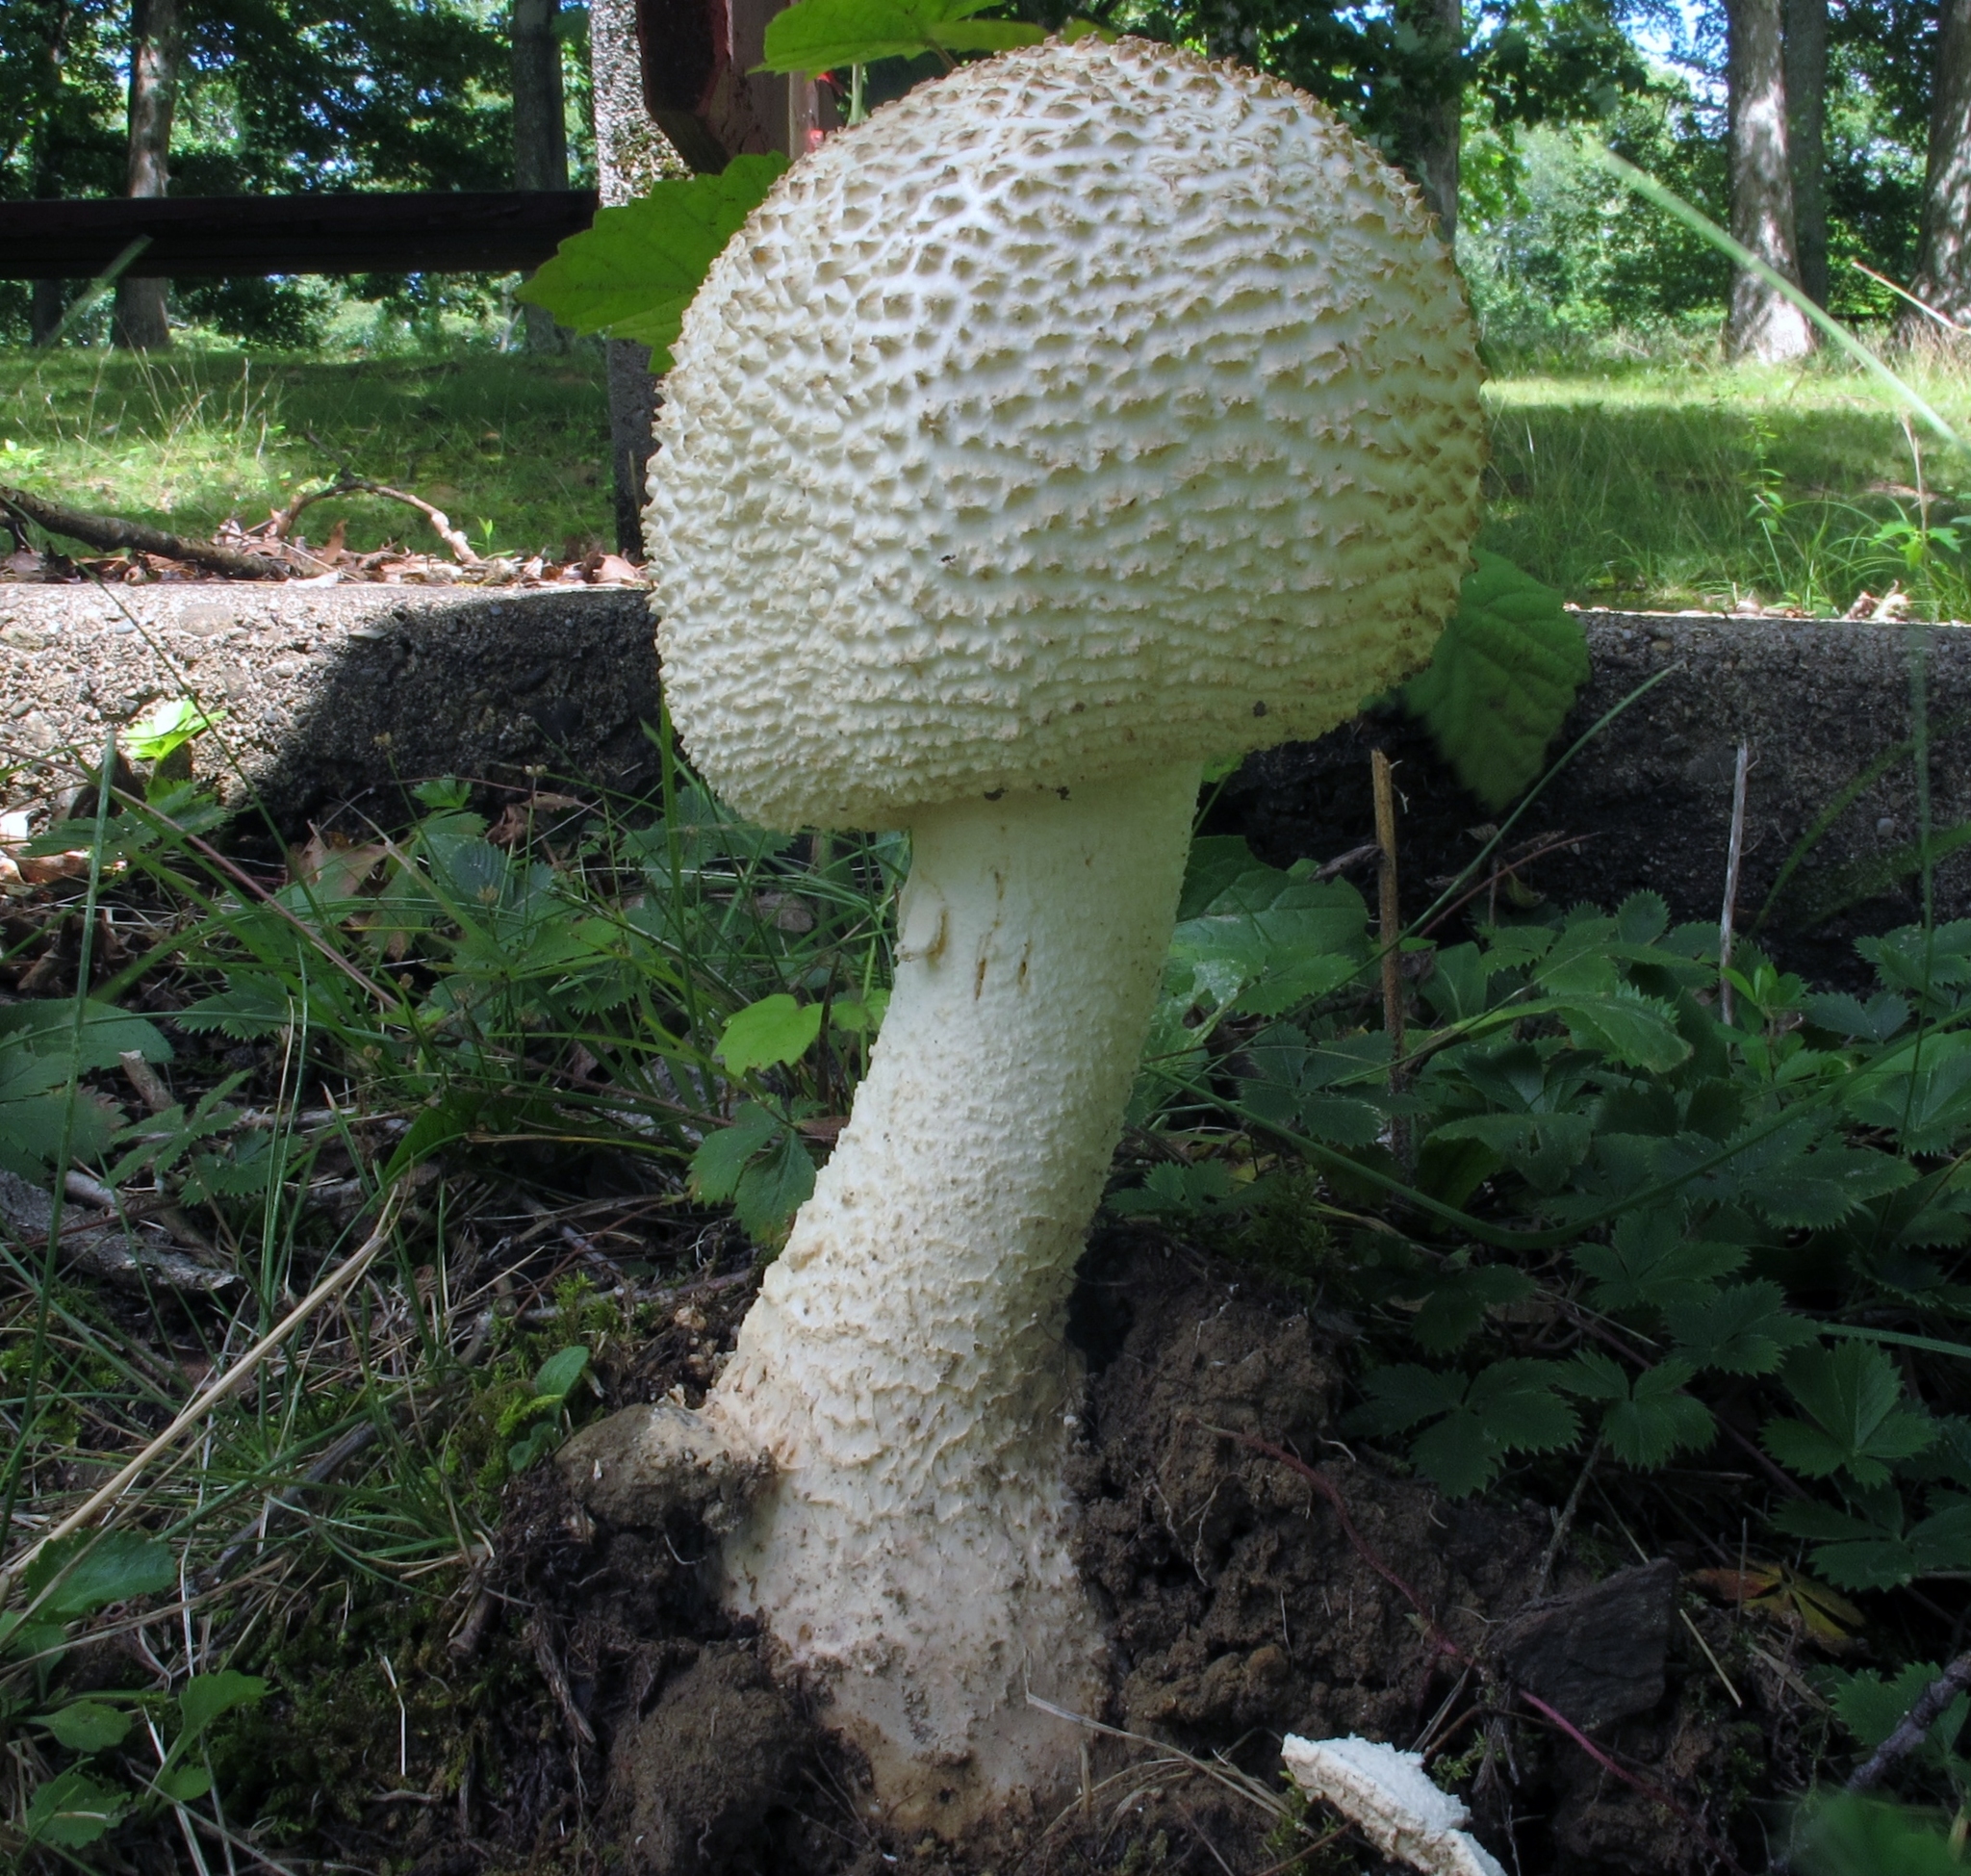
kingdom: Fungi
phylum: Basidiomycota
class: Agaricomycetes
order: Agaricales
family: Amanitaceae
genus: Amanita
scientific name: Amanita ravenelii
